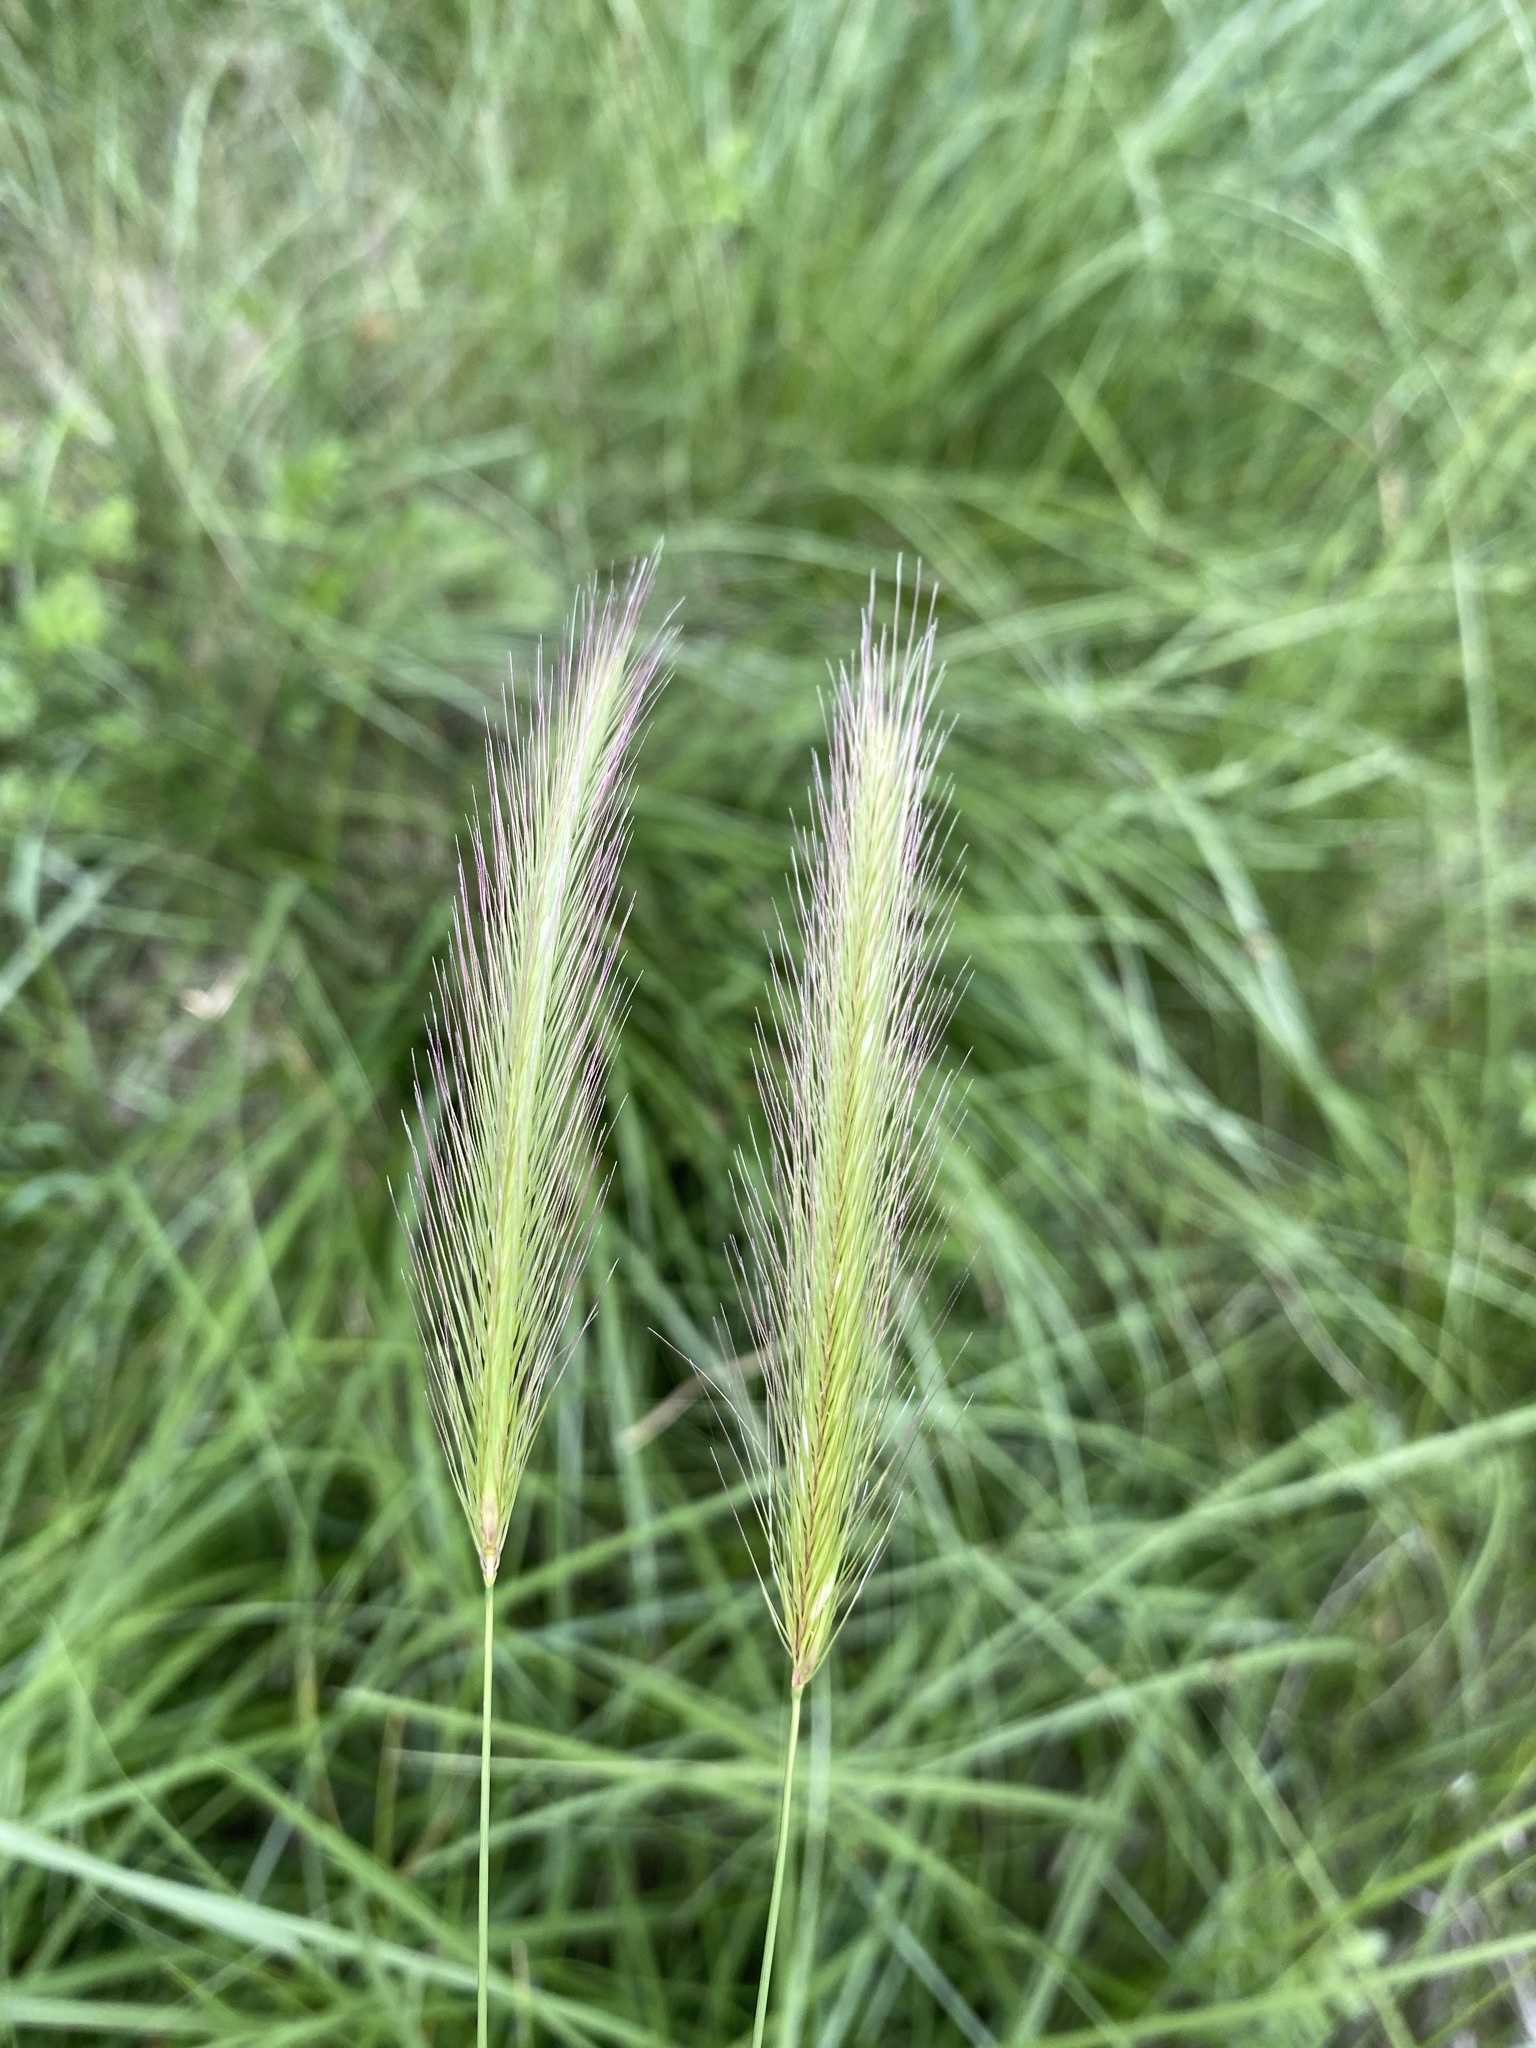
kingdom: Plantae
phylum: Tracheophyta
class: Liliopsida
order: Poales
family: Poaceae
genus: Hordeum
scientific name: Hordeum brachyantherum
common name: Meadow barley
